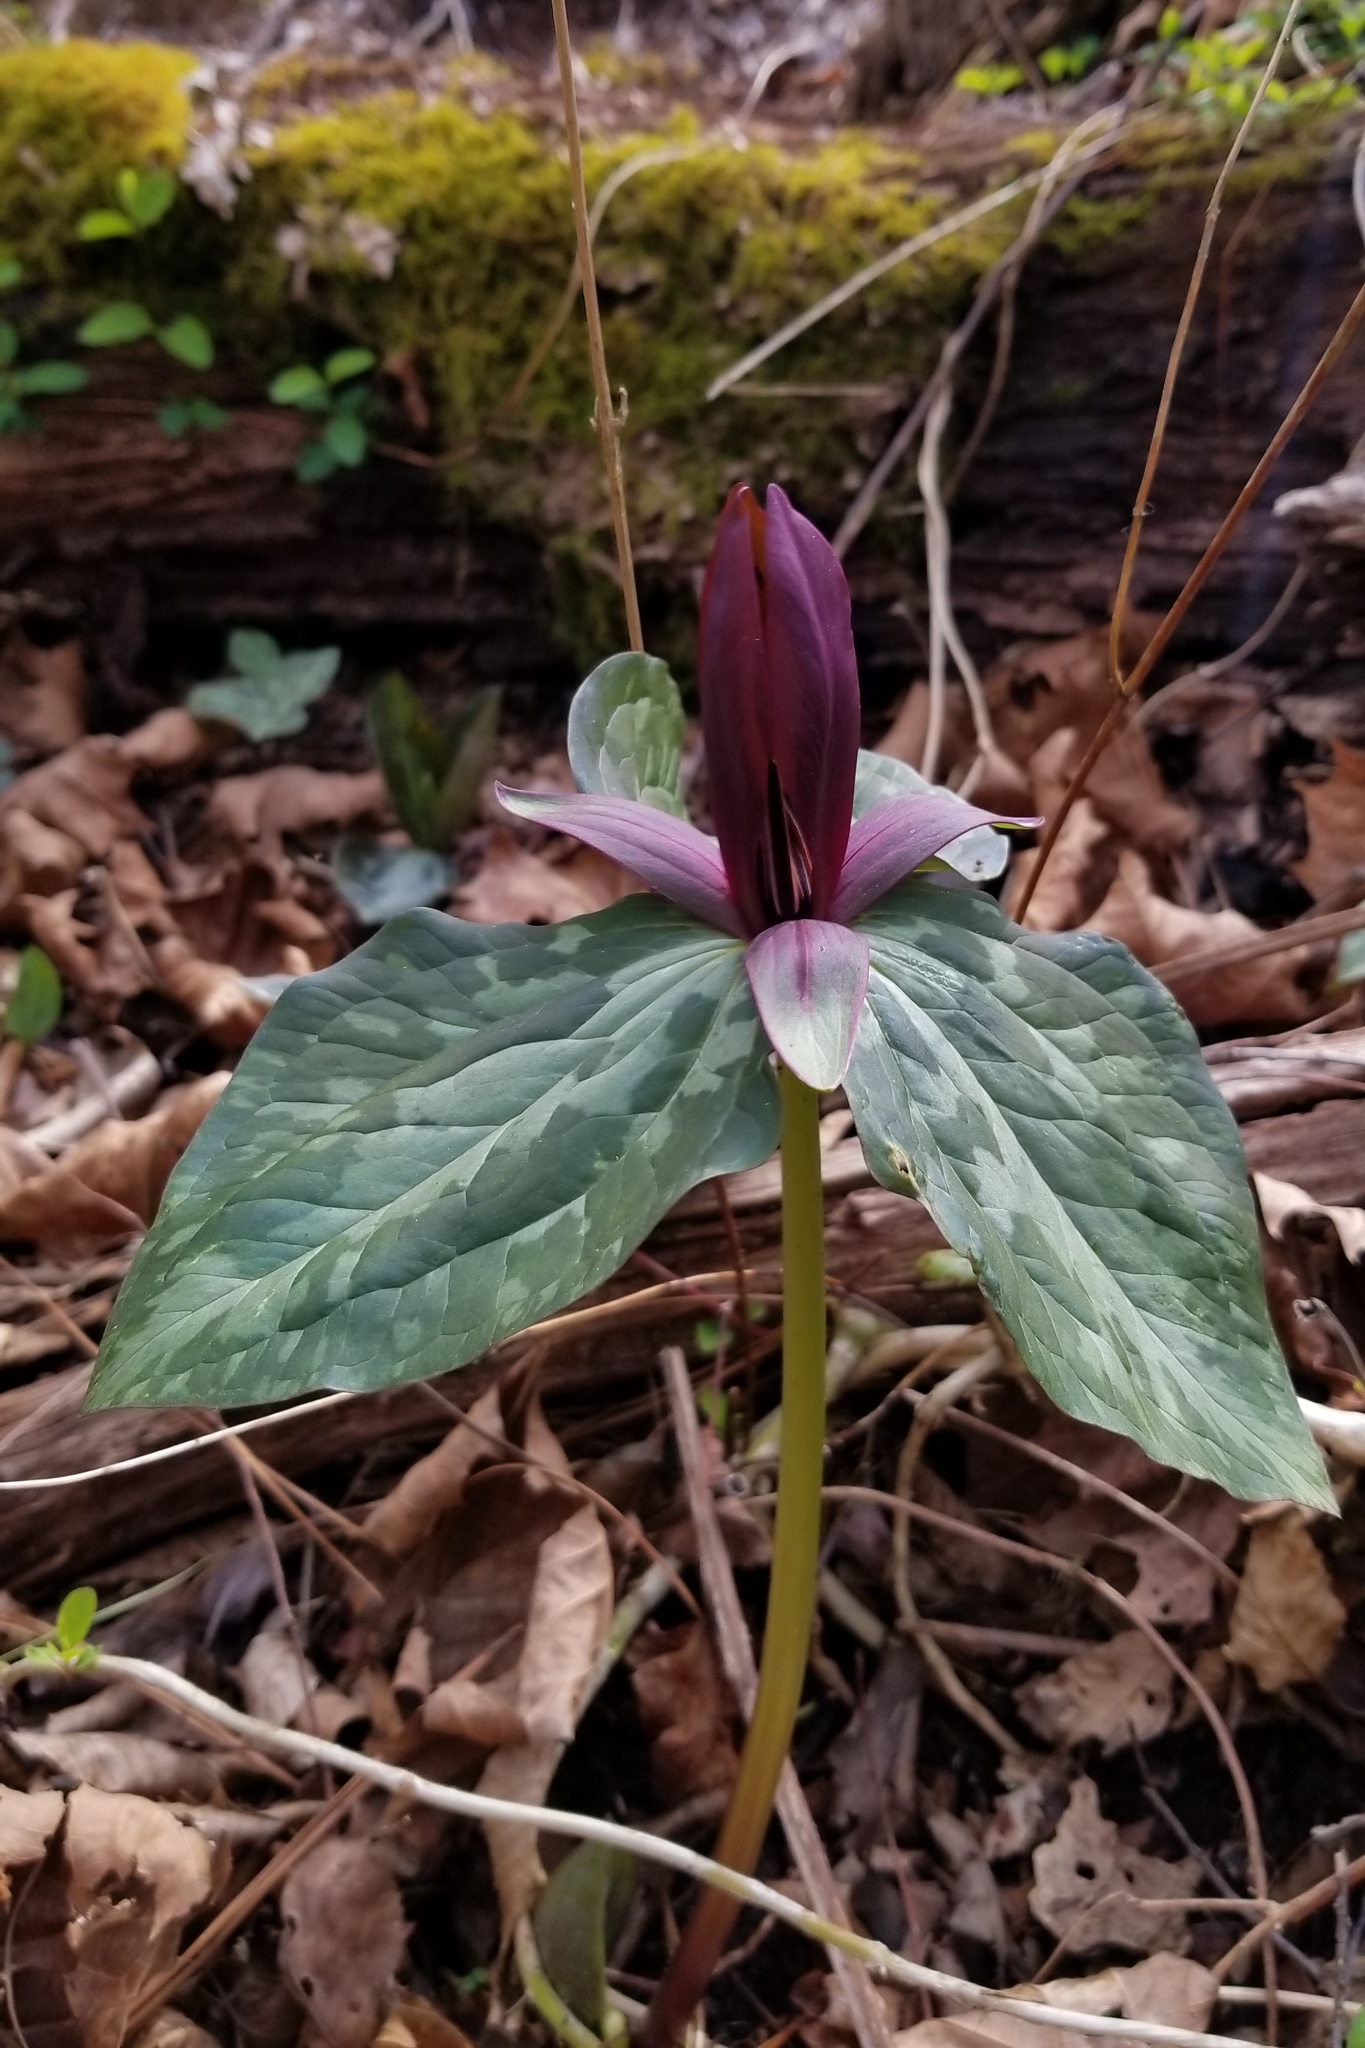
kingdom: Plantae
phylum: Tracheophyta
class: Liliopsida
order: Liliales
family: Melanthiaceae
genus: Trillium
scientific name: Trillium cuneatum
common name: Cuneate trillium
